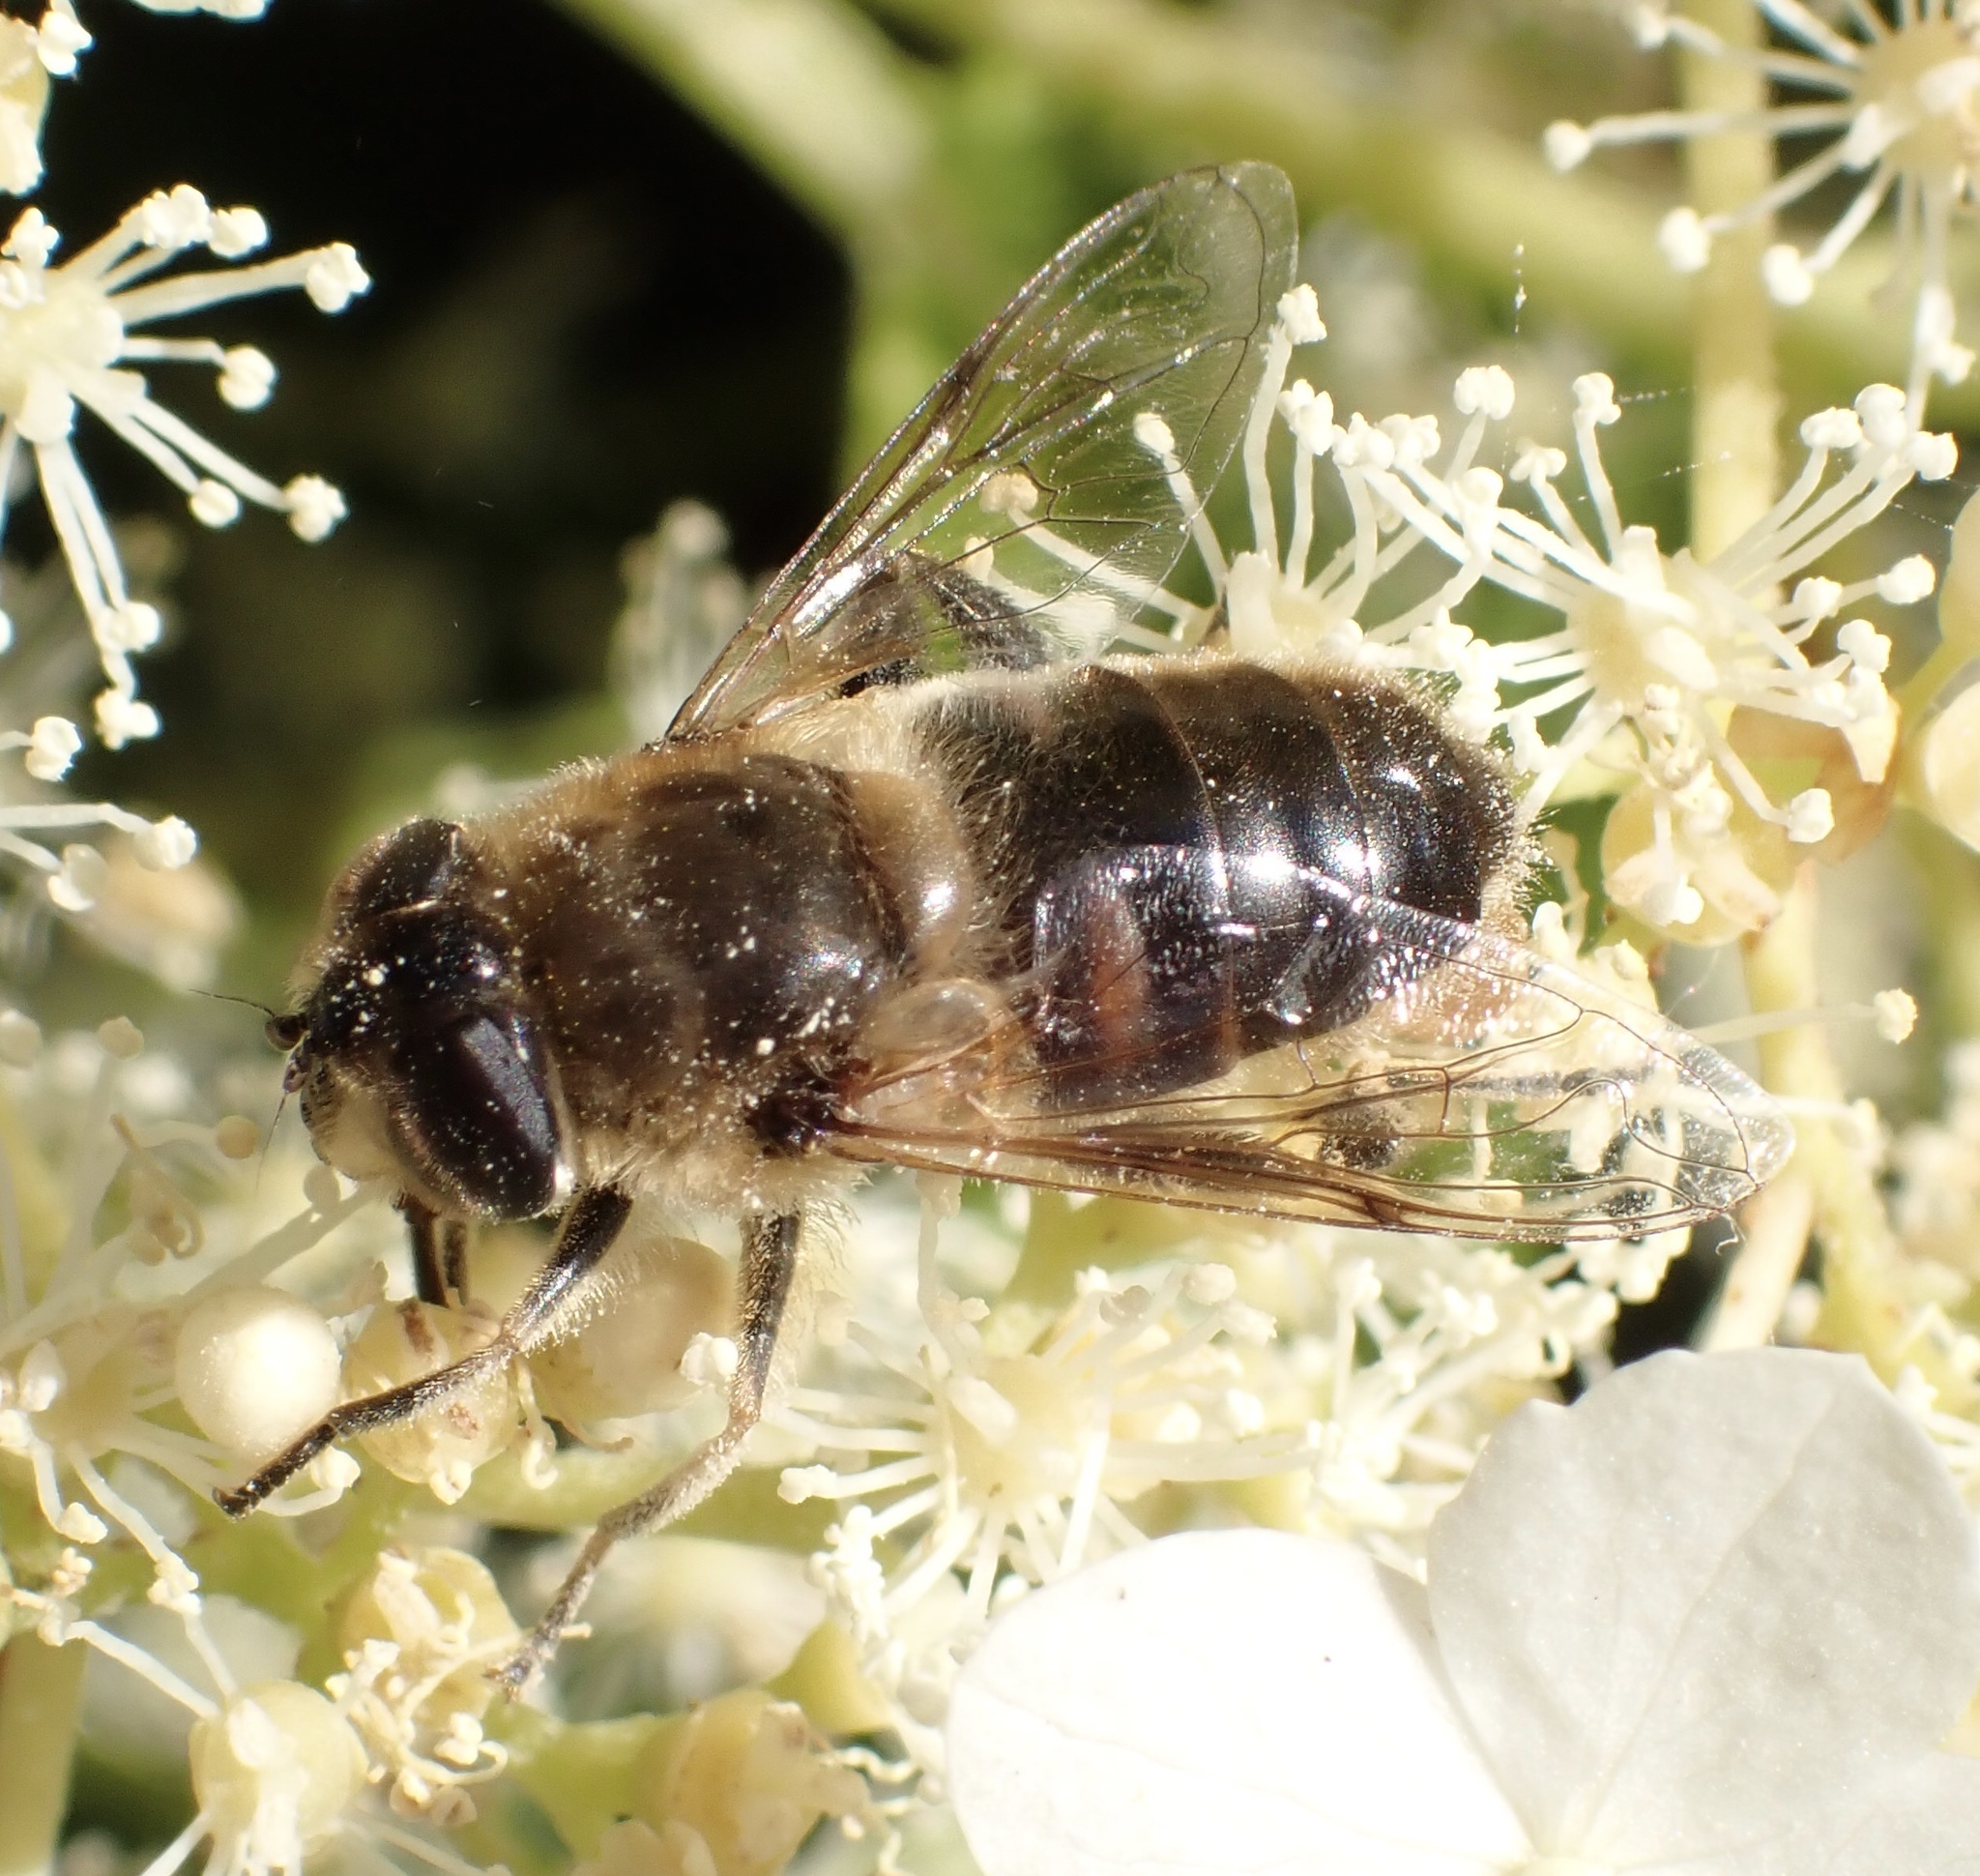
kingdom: Animalia
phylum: Arthropoda
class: Insecta
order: Diptera
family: Syrphidae
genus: Eristalis
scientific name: Eristalis tenax
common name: Drone fly
